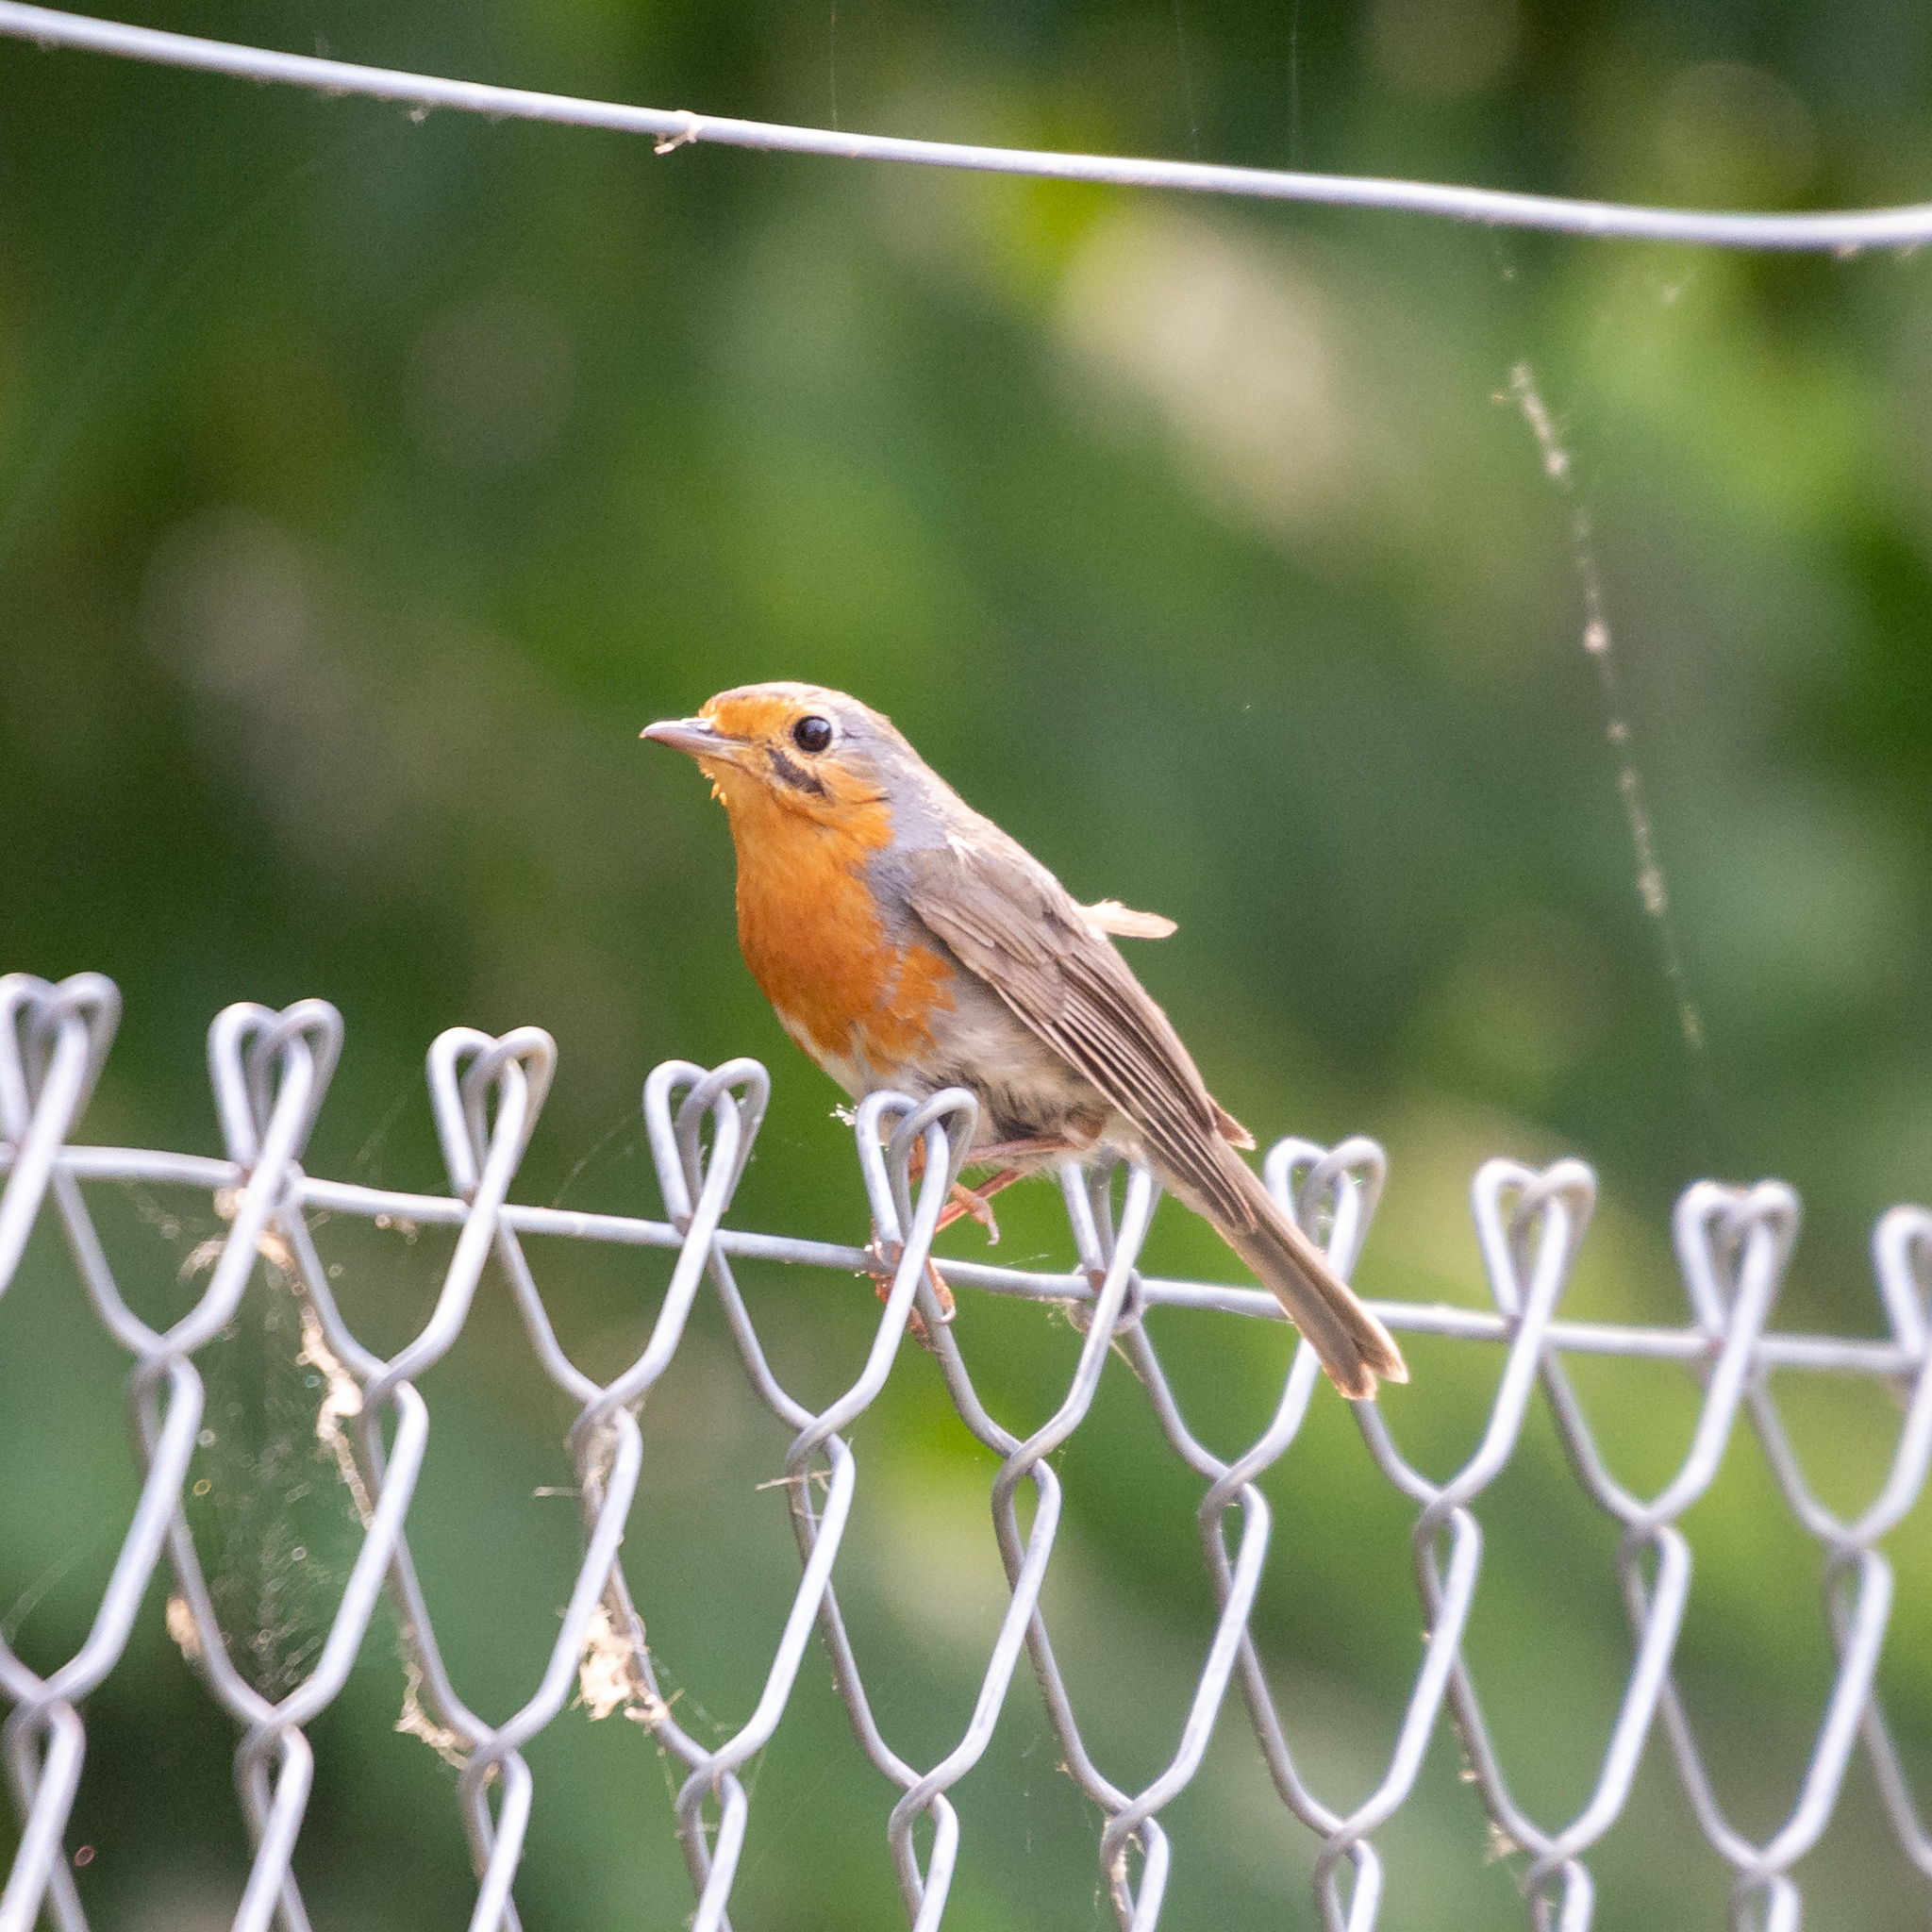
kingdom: Animalia
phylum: Chordata
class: Aves
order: Passeriformes
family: Muscicapidae
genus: Erithacus
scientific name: Erithacus rubecula
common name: European robin
